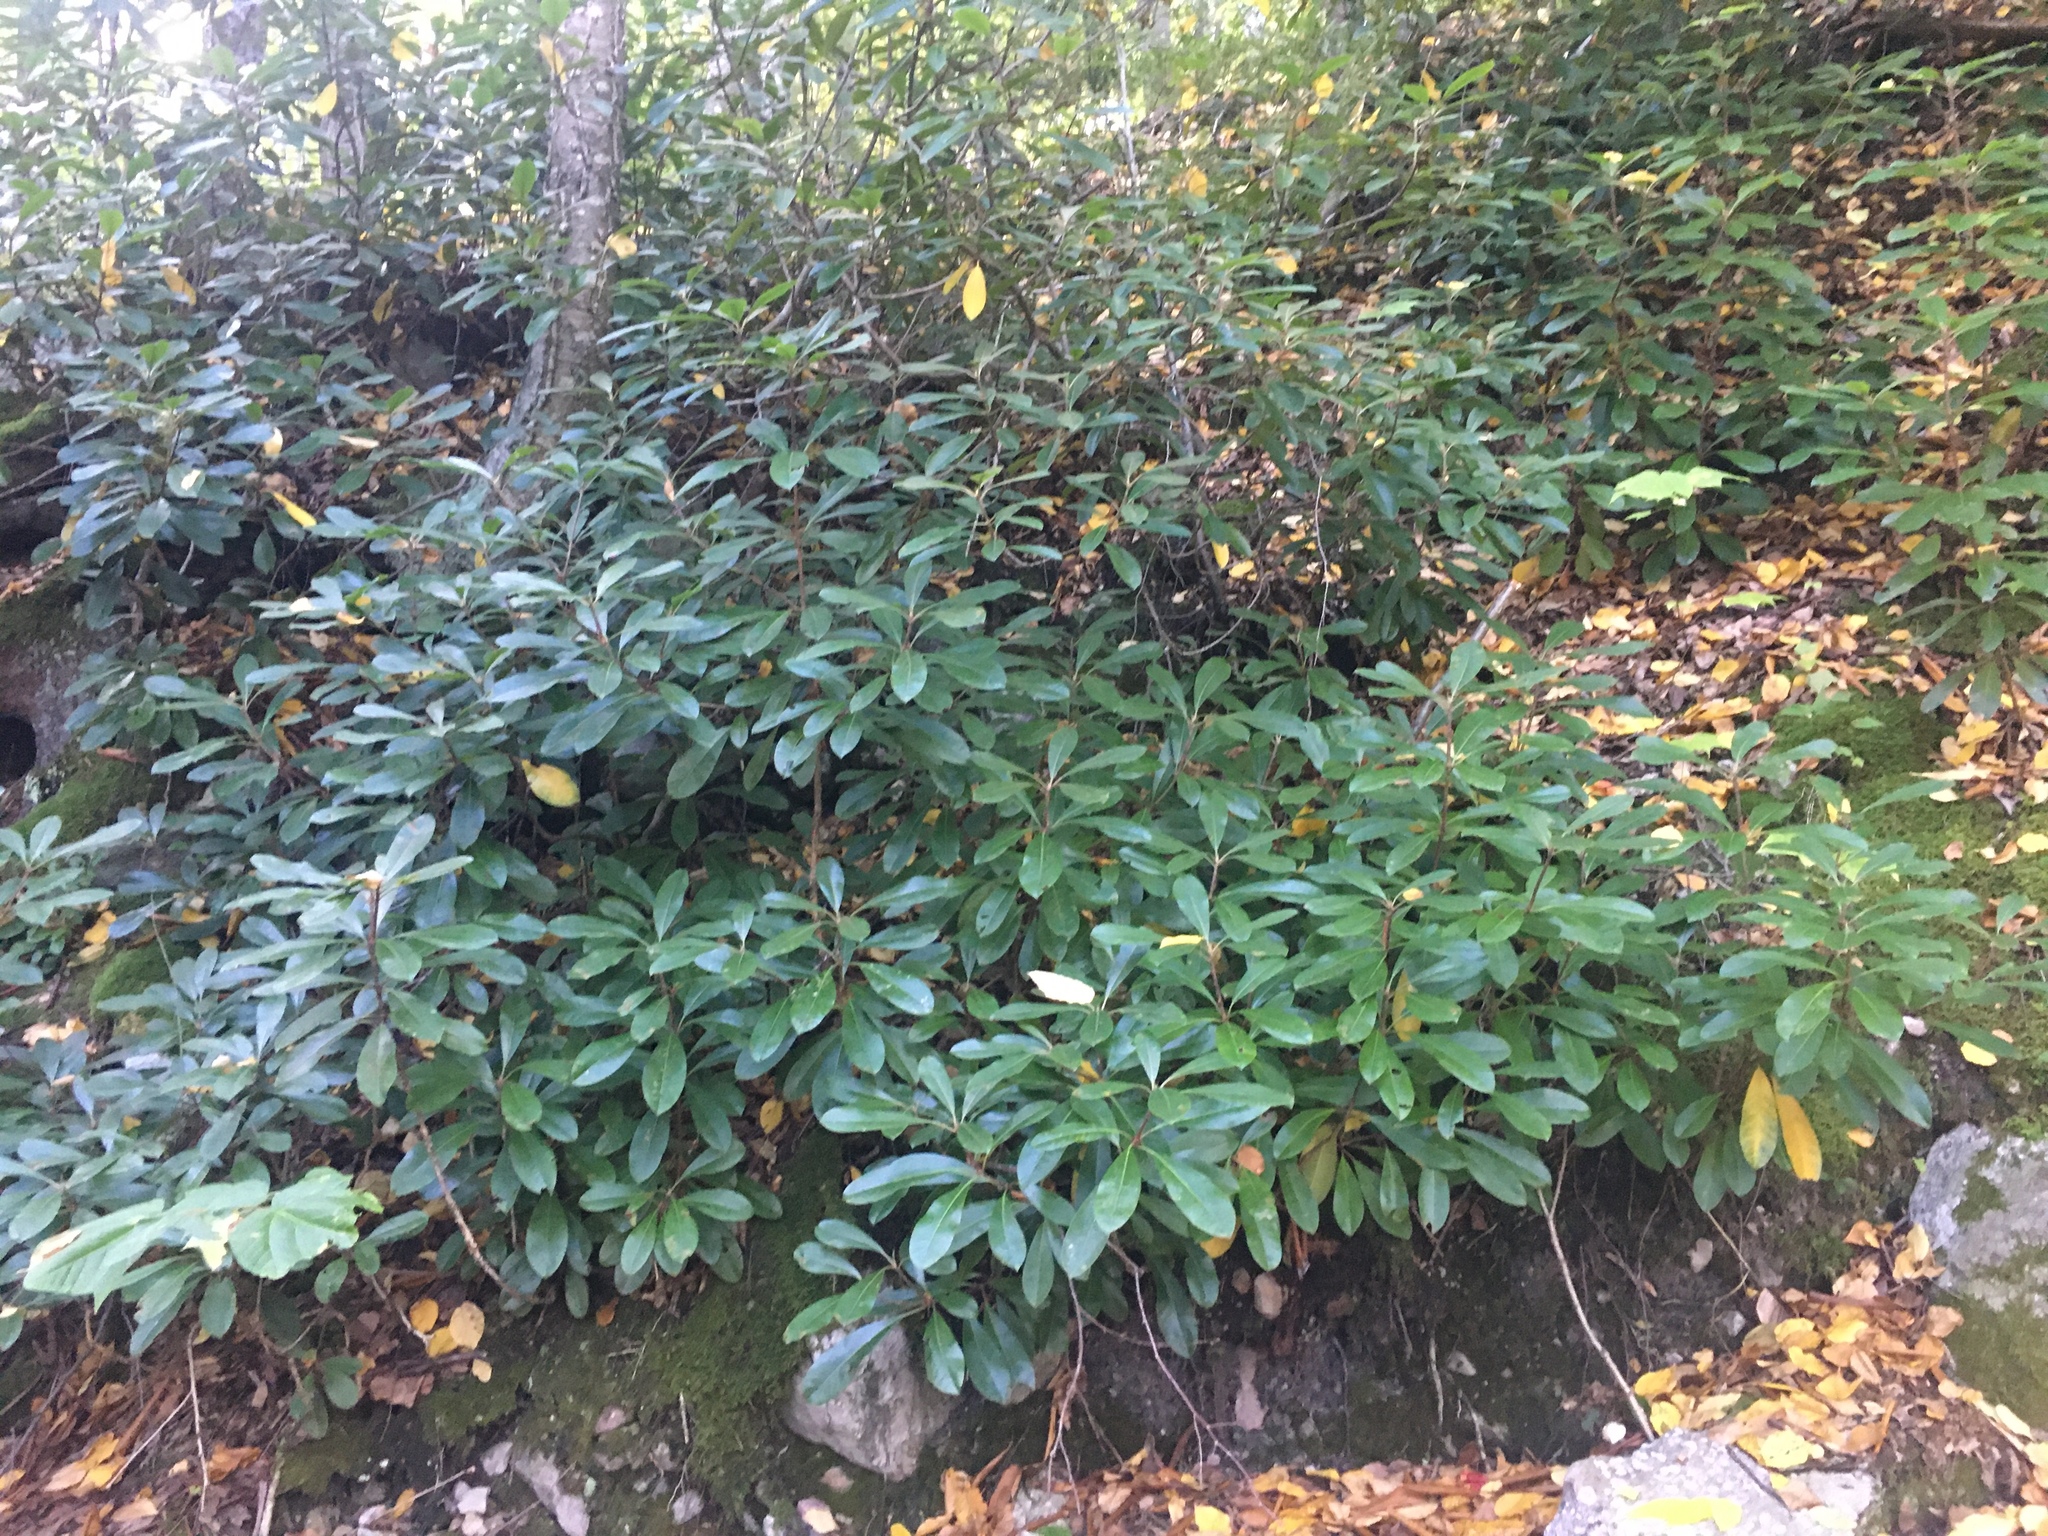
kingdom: Plantae
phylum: Tracheophyta
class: Magnoliopsida
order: Ericales
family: Ericaceae
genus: Rhododendron
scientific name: Rhododendron maximum
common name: Great rhododendron
